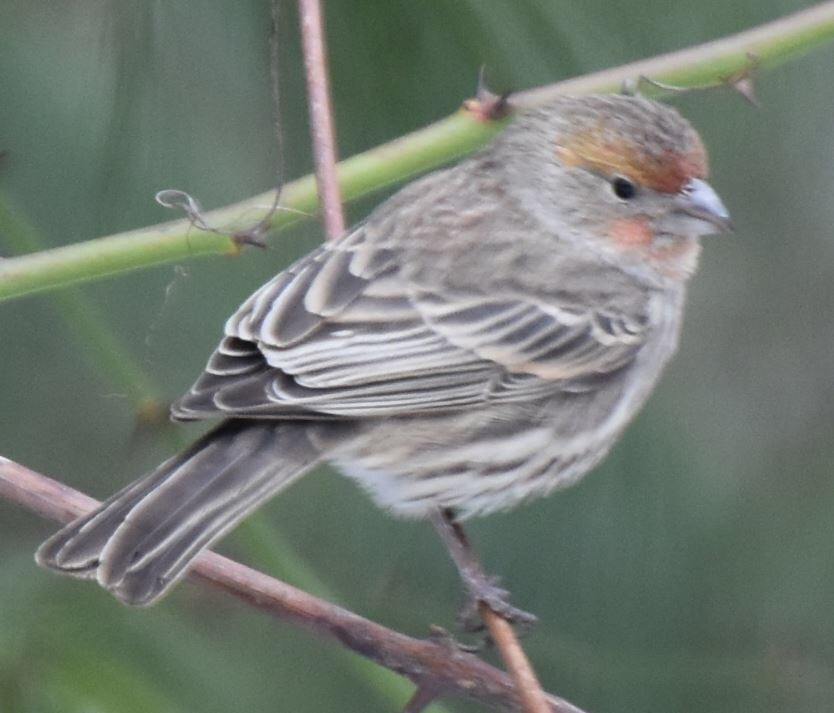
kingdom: Animalia
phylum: Chordata
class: Aves
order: Passeriformes
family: Fringillidae
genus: Haemorhous
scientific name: Haemorhous mexicanus
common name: House finch
